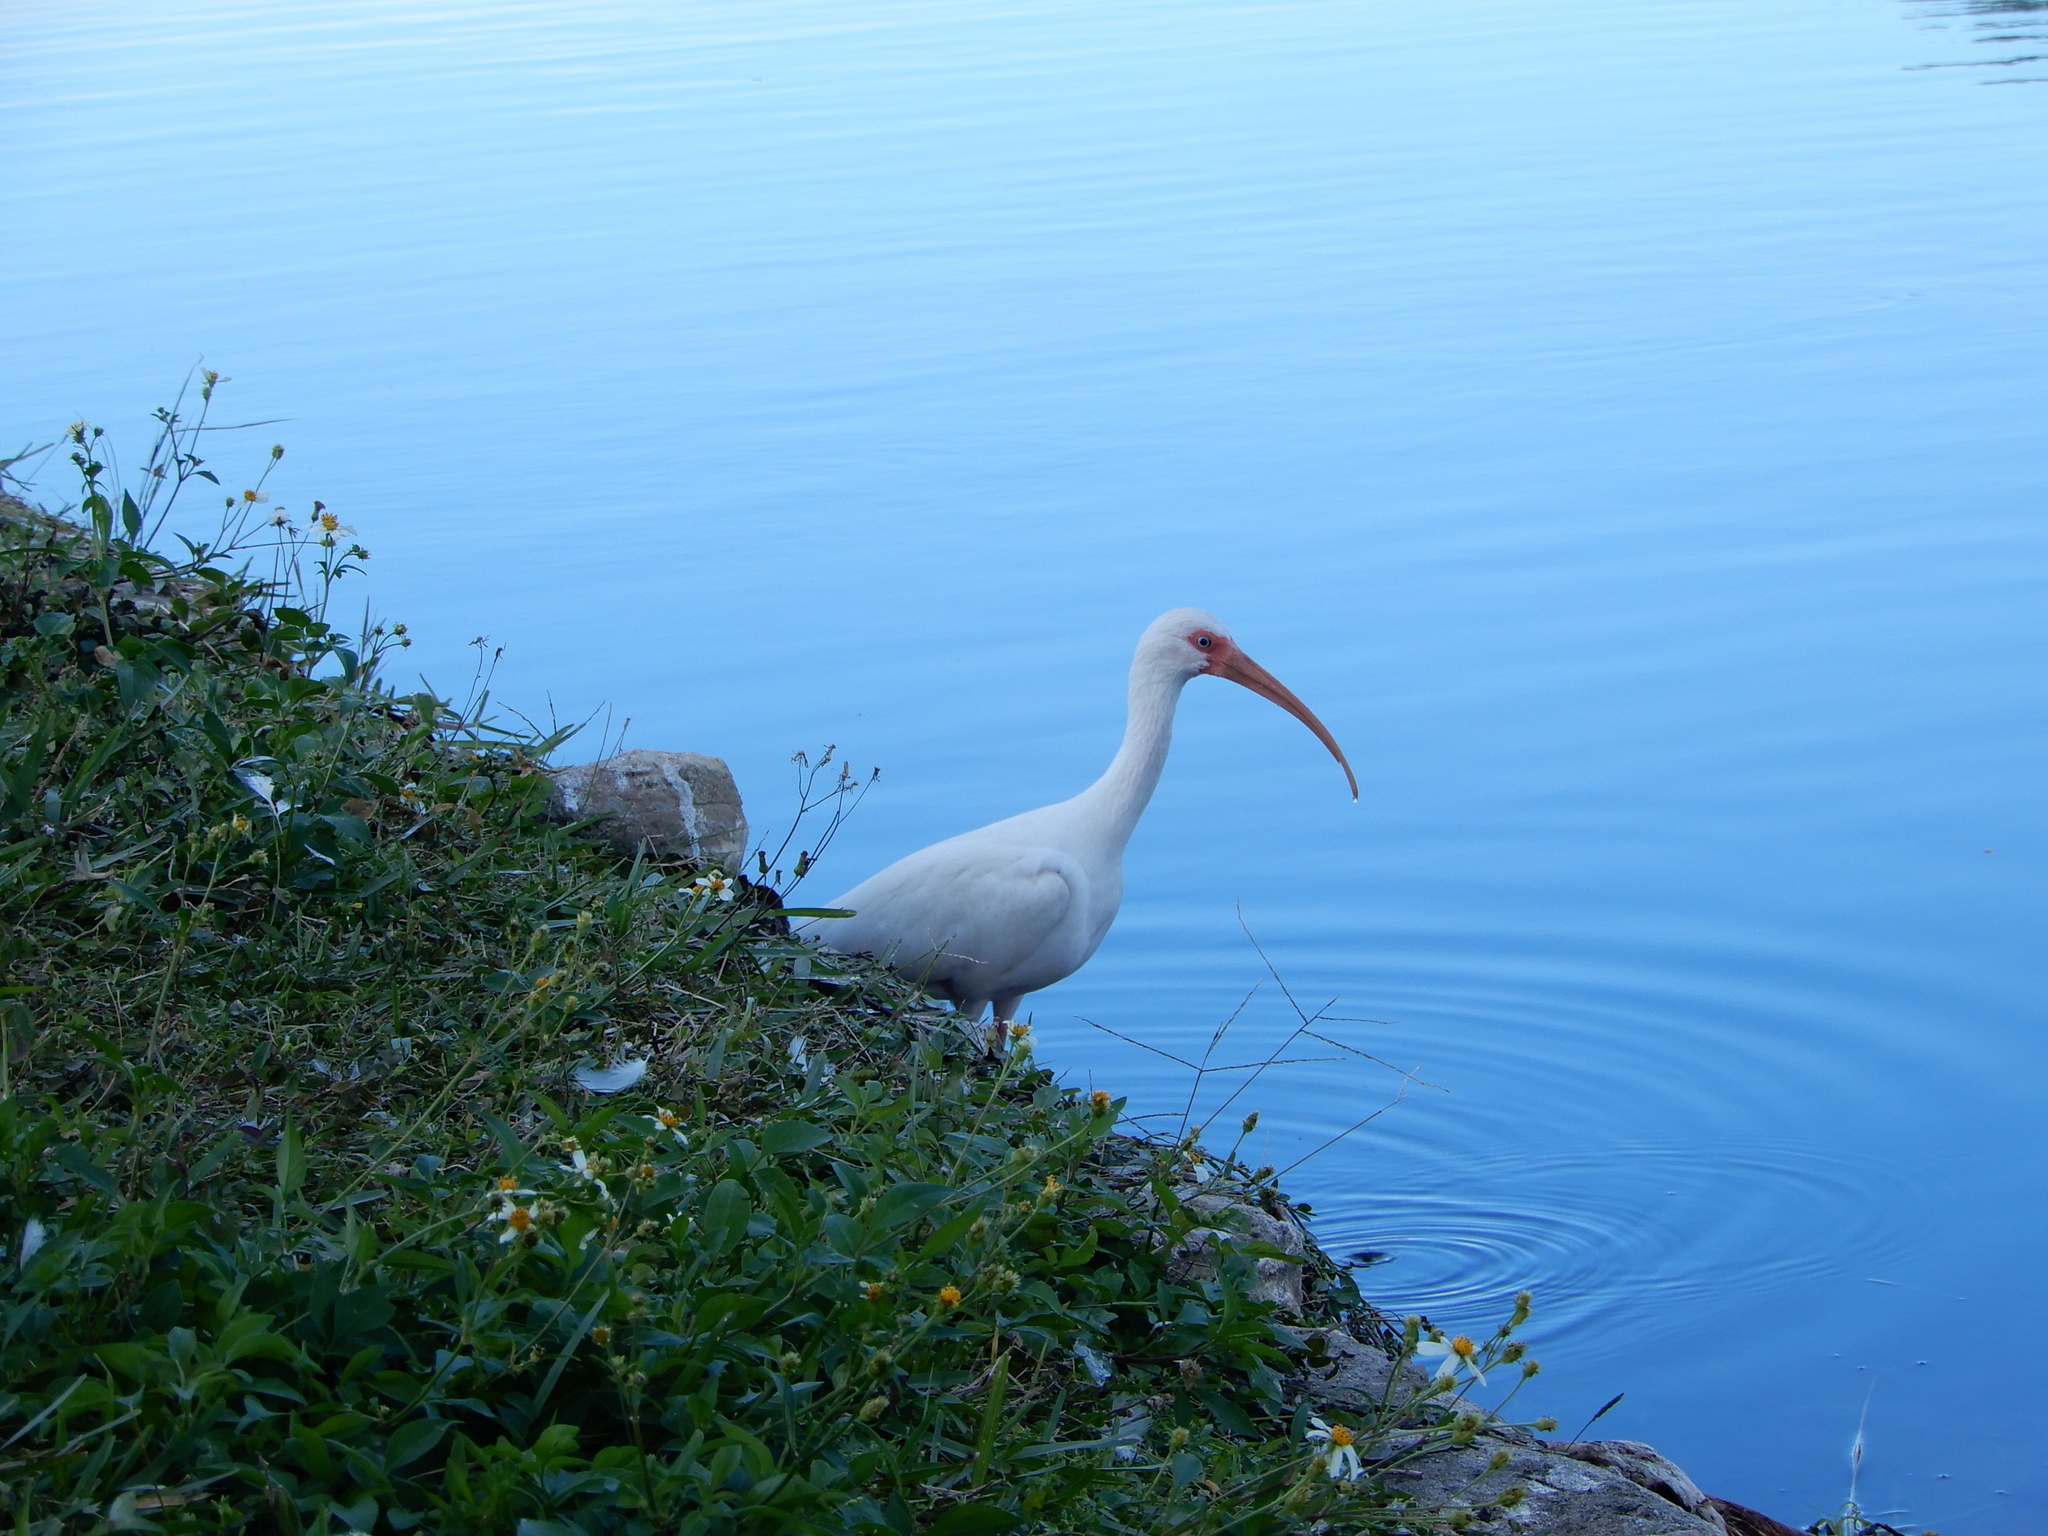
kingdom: Animalia
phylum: Chordata
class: Aves
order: Pelecaniformes
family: Threskiornithidae
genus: Eudocimus
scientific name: Eudocimus albus
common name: White ibis
